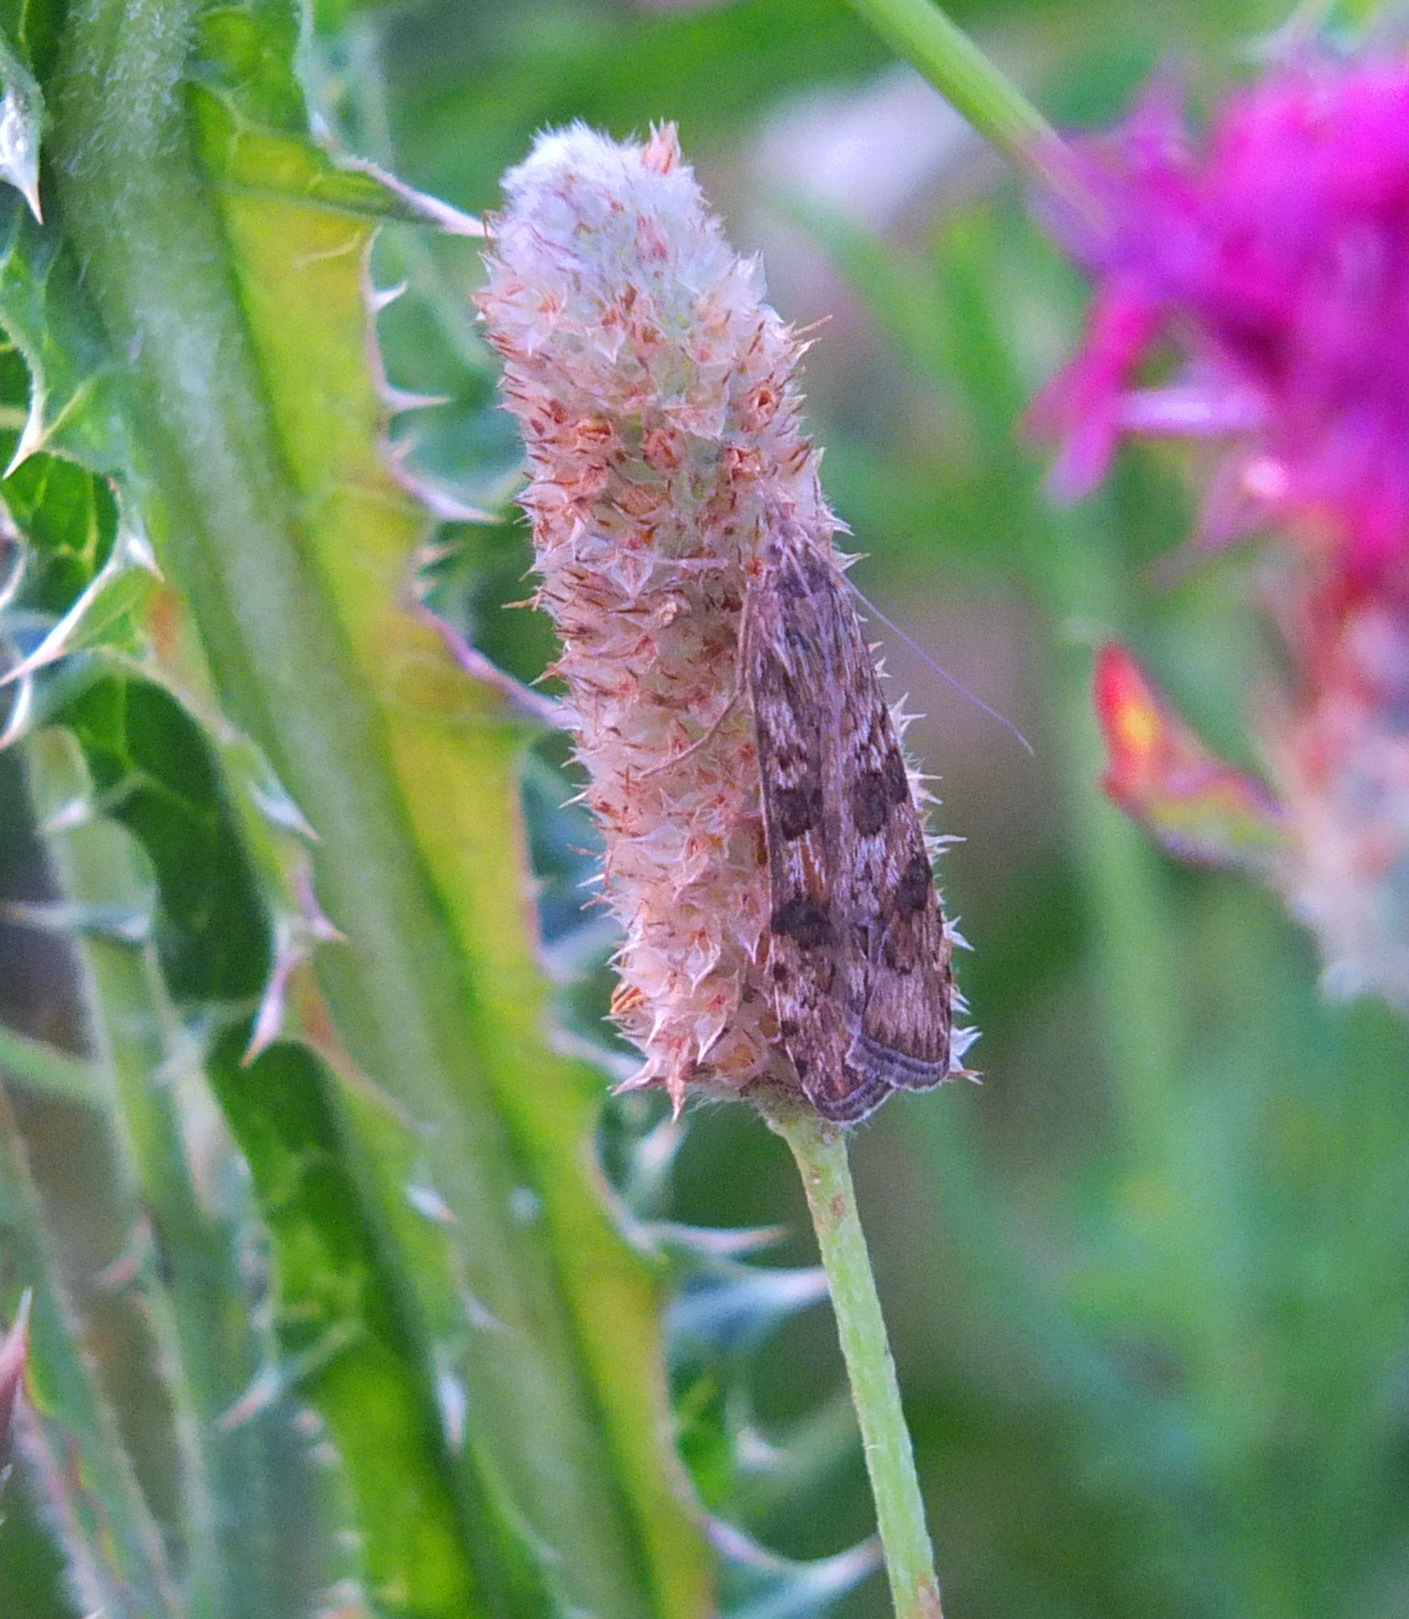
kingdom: Animalia
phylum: Arthropoda
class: Insecta
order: Lepidoptera
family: Crambidae
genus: Nomophila
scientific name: Nomophila noctuella
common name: Rush veneer
